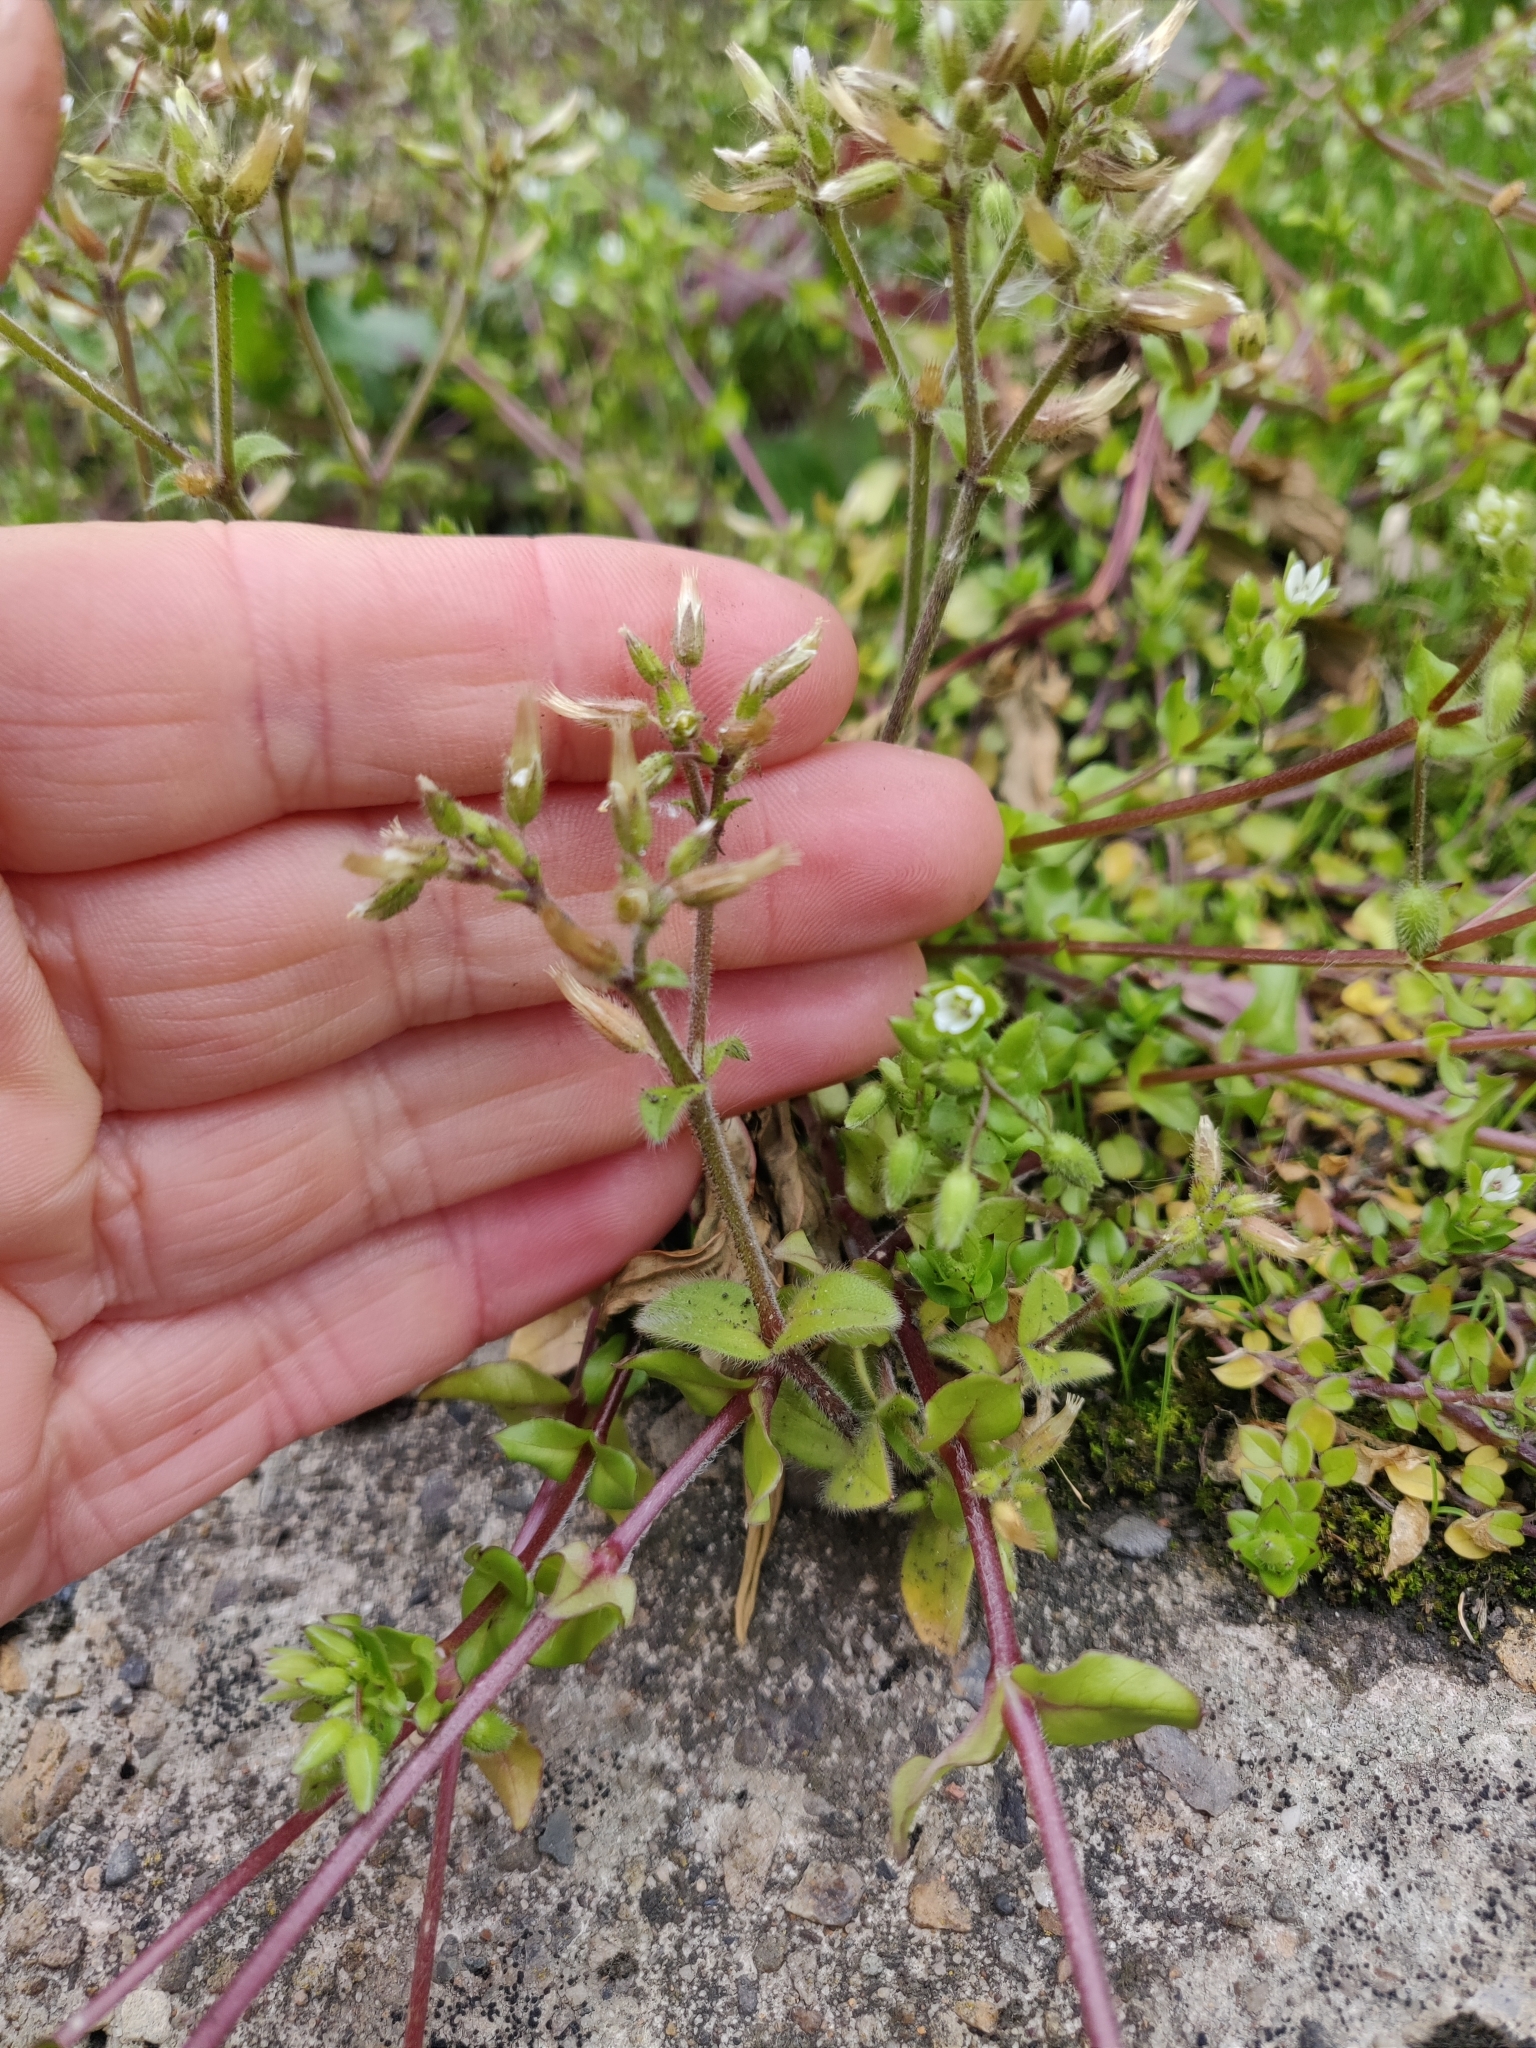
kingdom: Plantae
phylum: Tracheophyta
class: Magnoliopsida
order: Caryophyllales
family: Caryophyllaceae
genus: Stellaria
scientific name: Stellaria media
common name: Common chickweed
